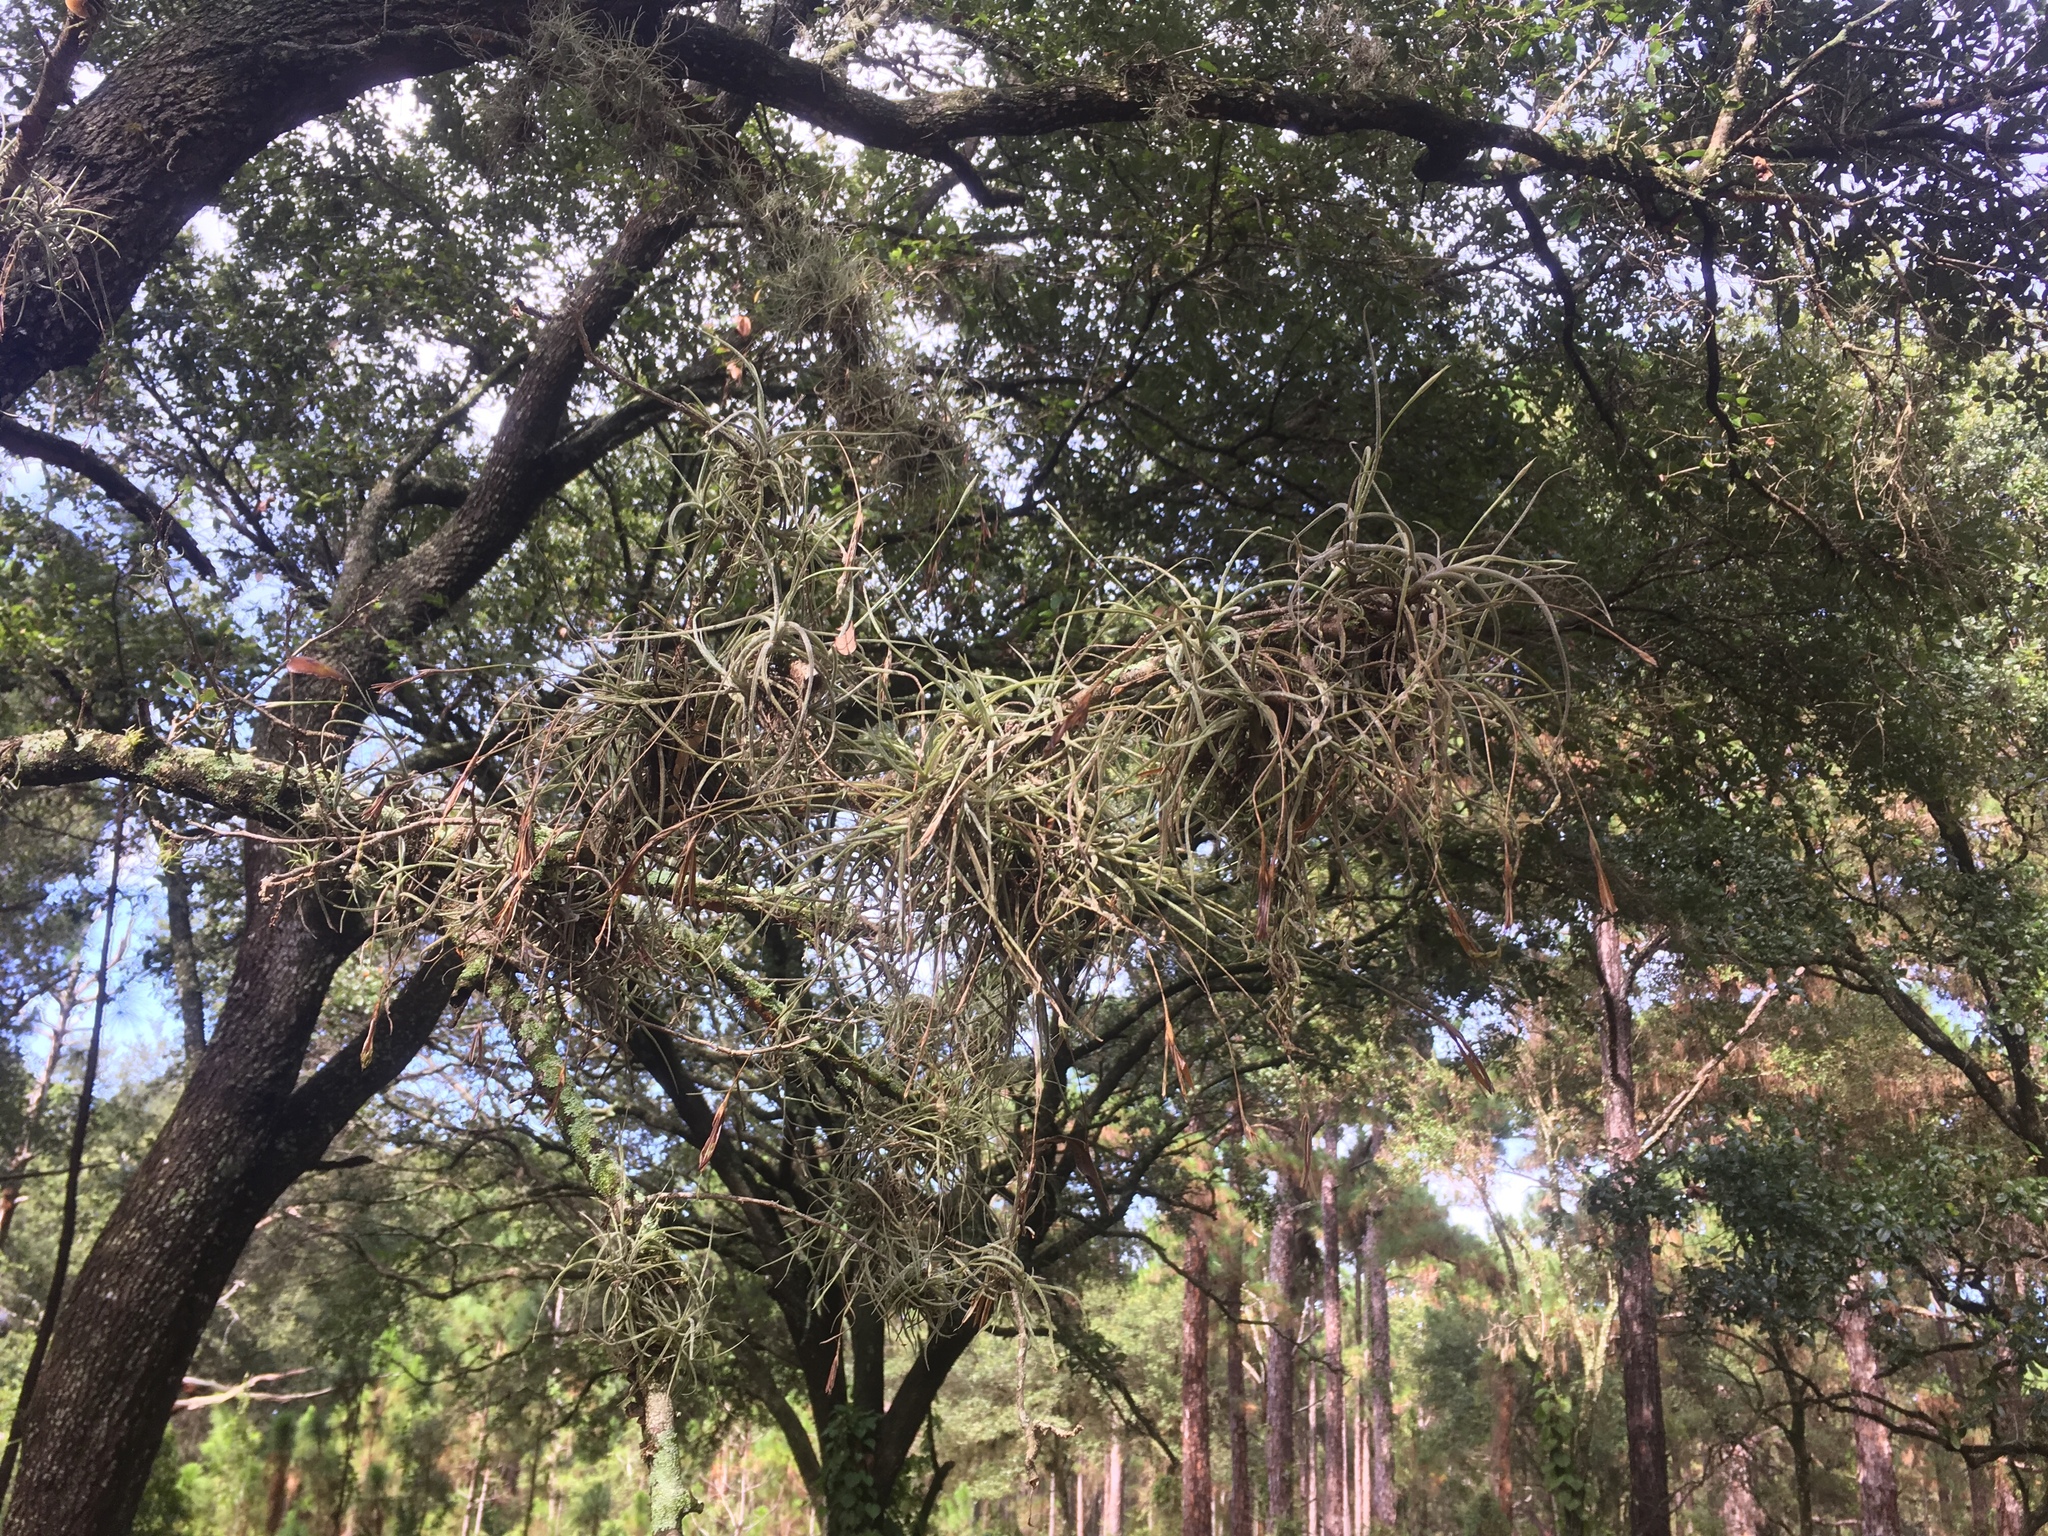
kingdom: Plantae
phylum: Tracheophyta
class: Liliopsida
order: Poales
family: Bromeliaceae
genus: Tillandsia
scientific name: Tillandsia recurvata
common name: Small ballmoss
